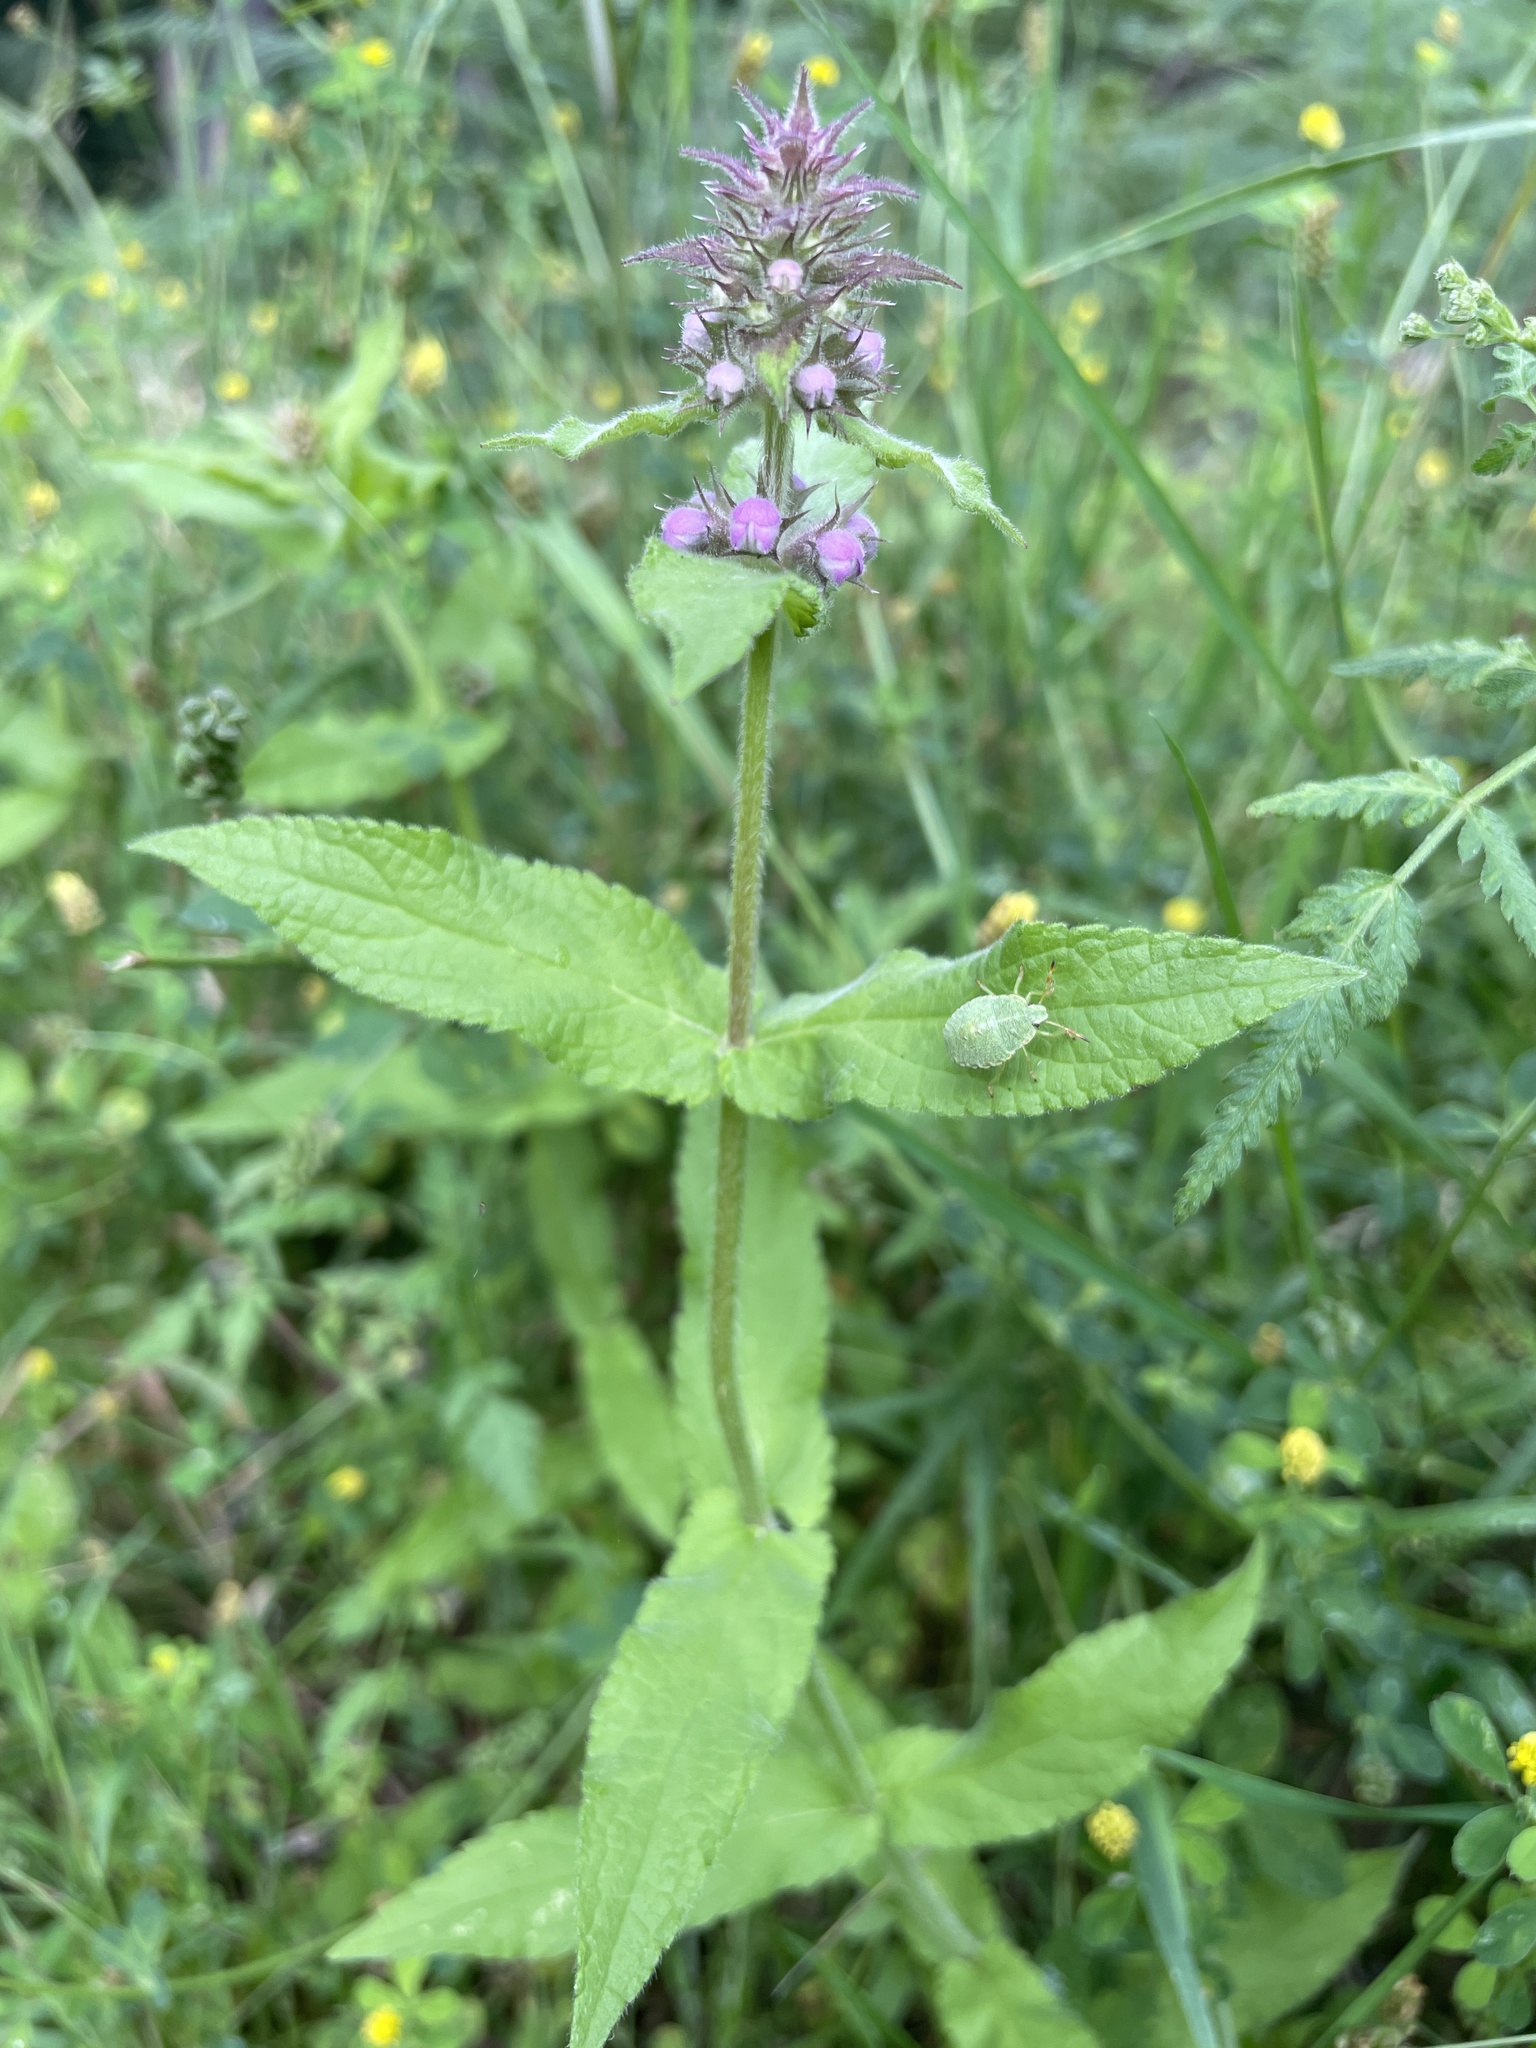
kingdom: Plantae
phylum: Tracheophyta
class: Magnoliopsida
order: Lamiales
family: Lamiaceae
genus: Stachys
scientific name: Stachys palustris
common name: Marsh woundwort
